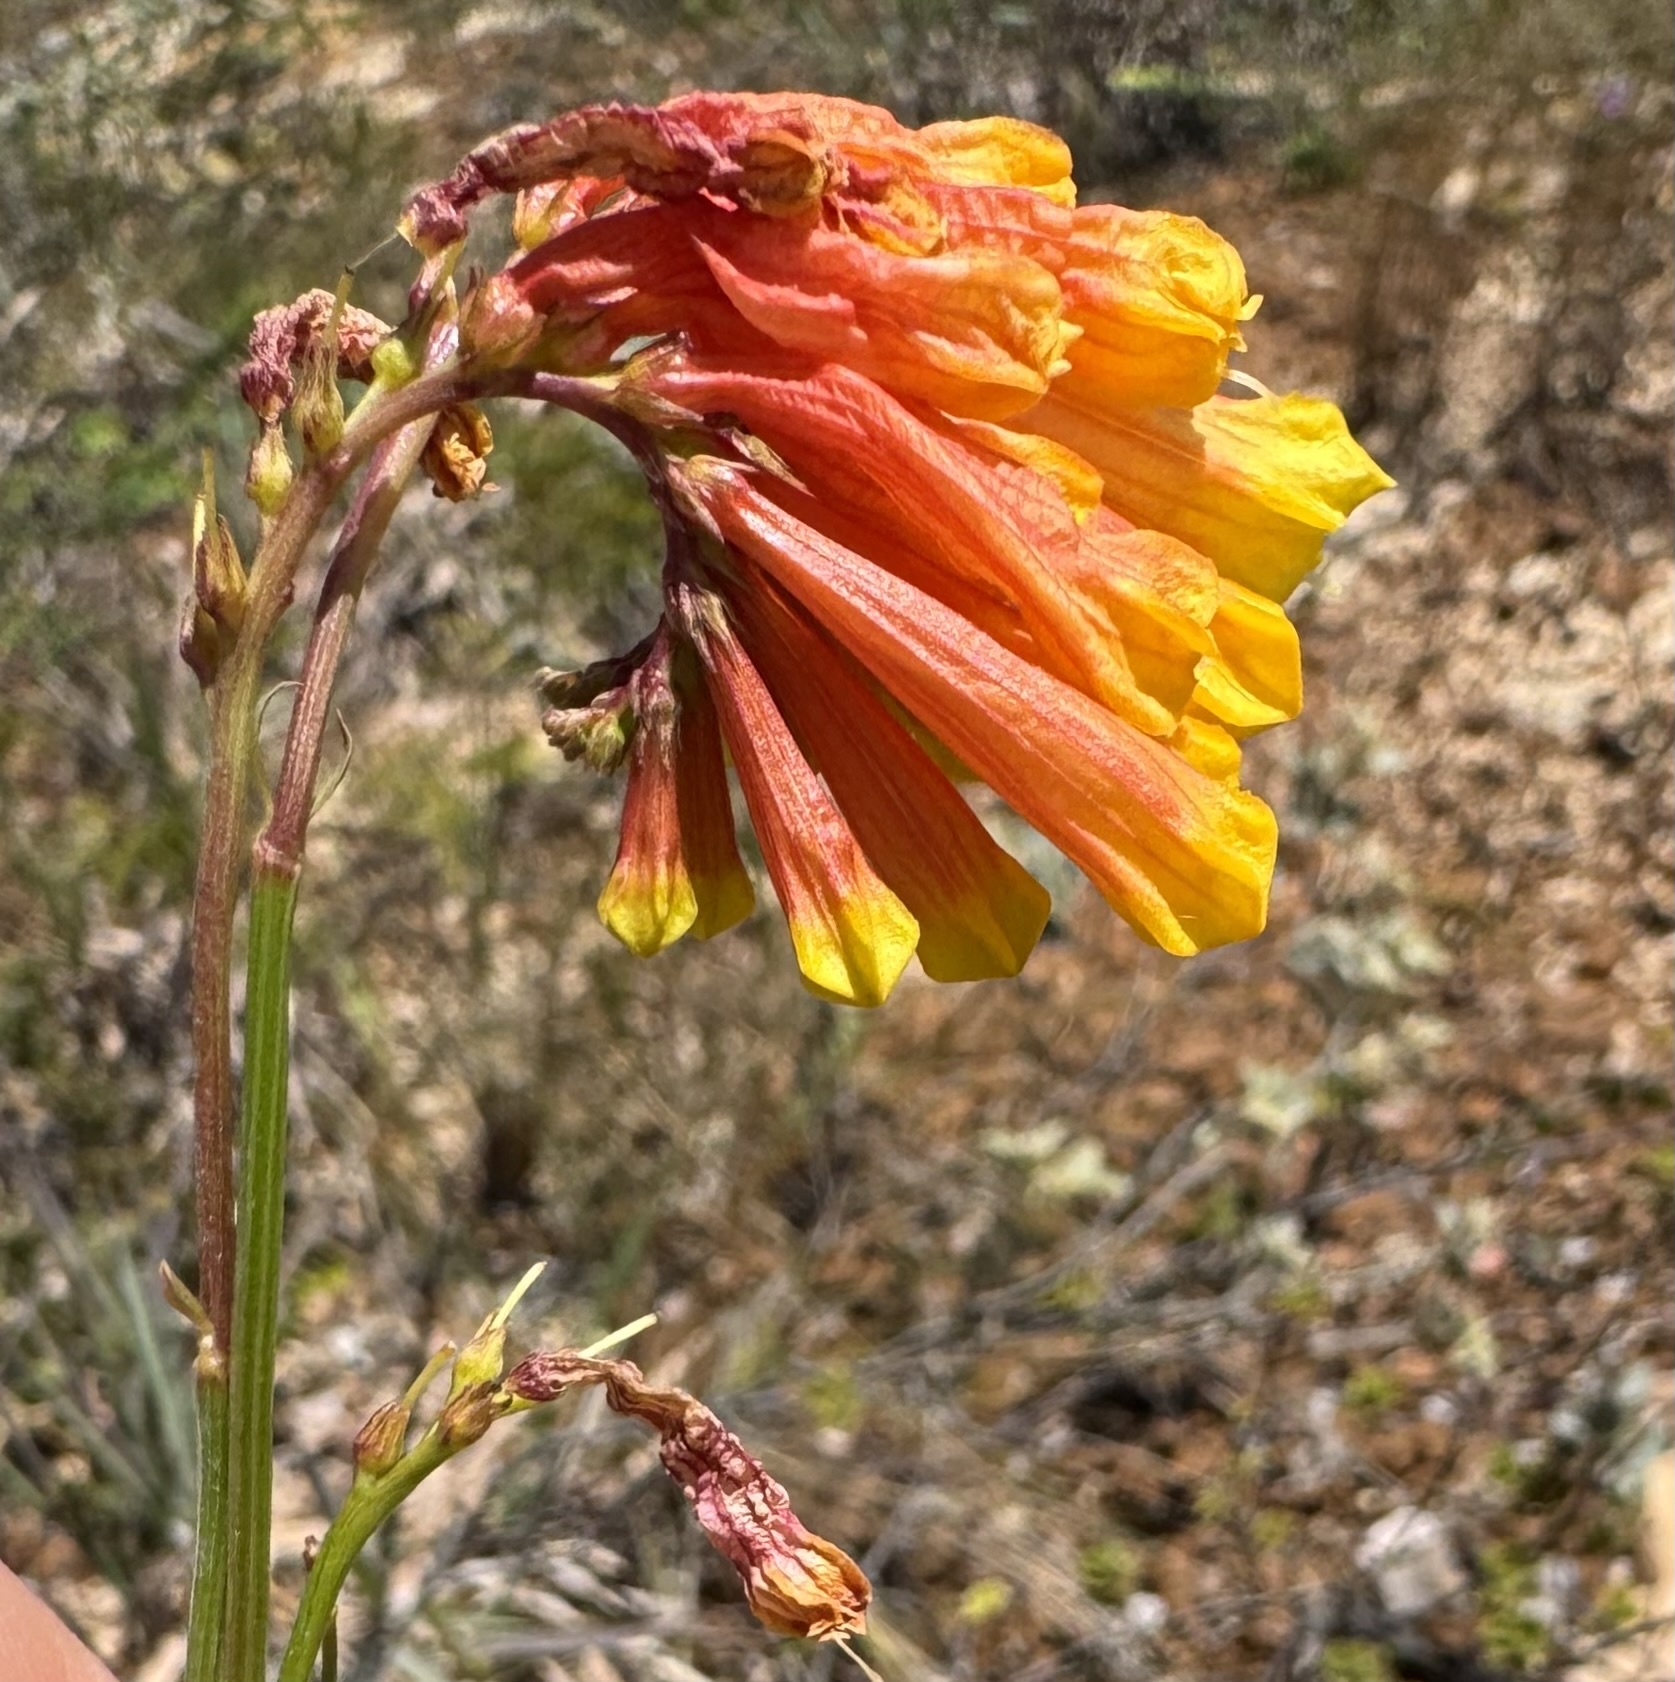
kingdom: Plantae
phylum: Tracheophyta
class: Magnoliopsida
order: Gentianales
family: Loganiaceae
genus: Spigelia
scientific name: Spigelia pulchella
